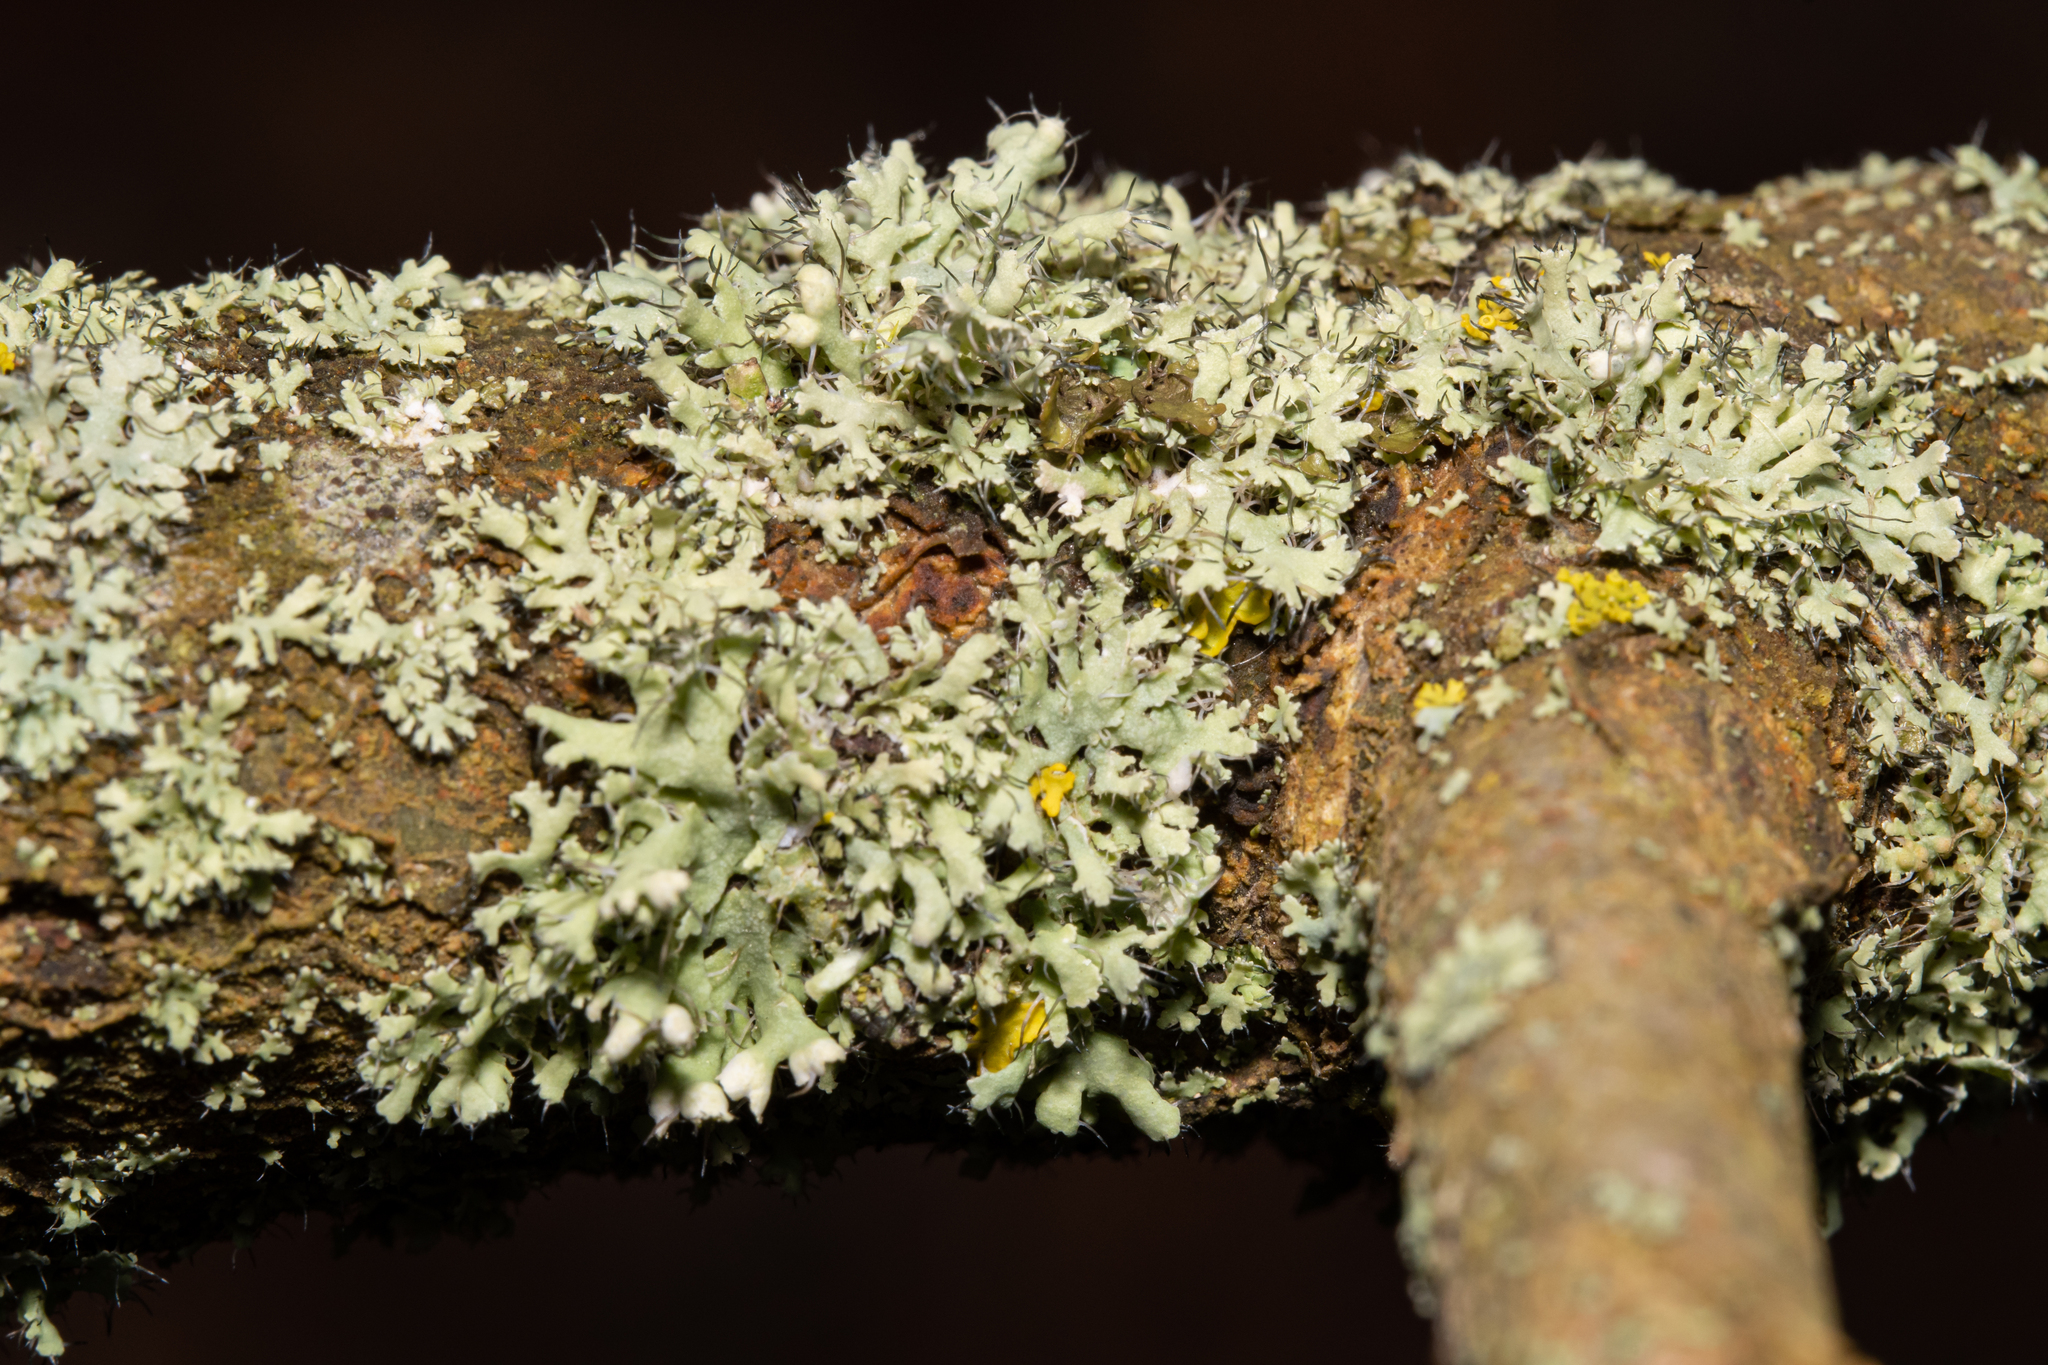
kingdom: Fungi
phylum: Ascomycota
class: Lecanoromycetes
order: Caliciales
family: Physciaceae
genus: Physcia
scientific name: Physcia adscendens
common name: Hooded rosette lichen
